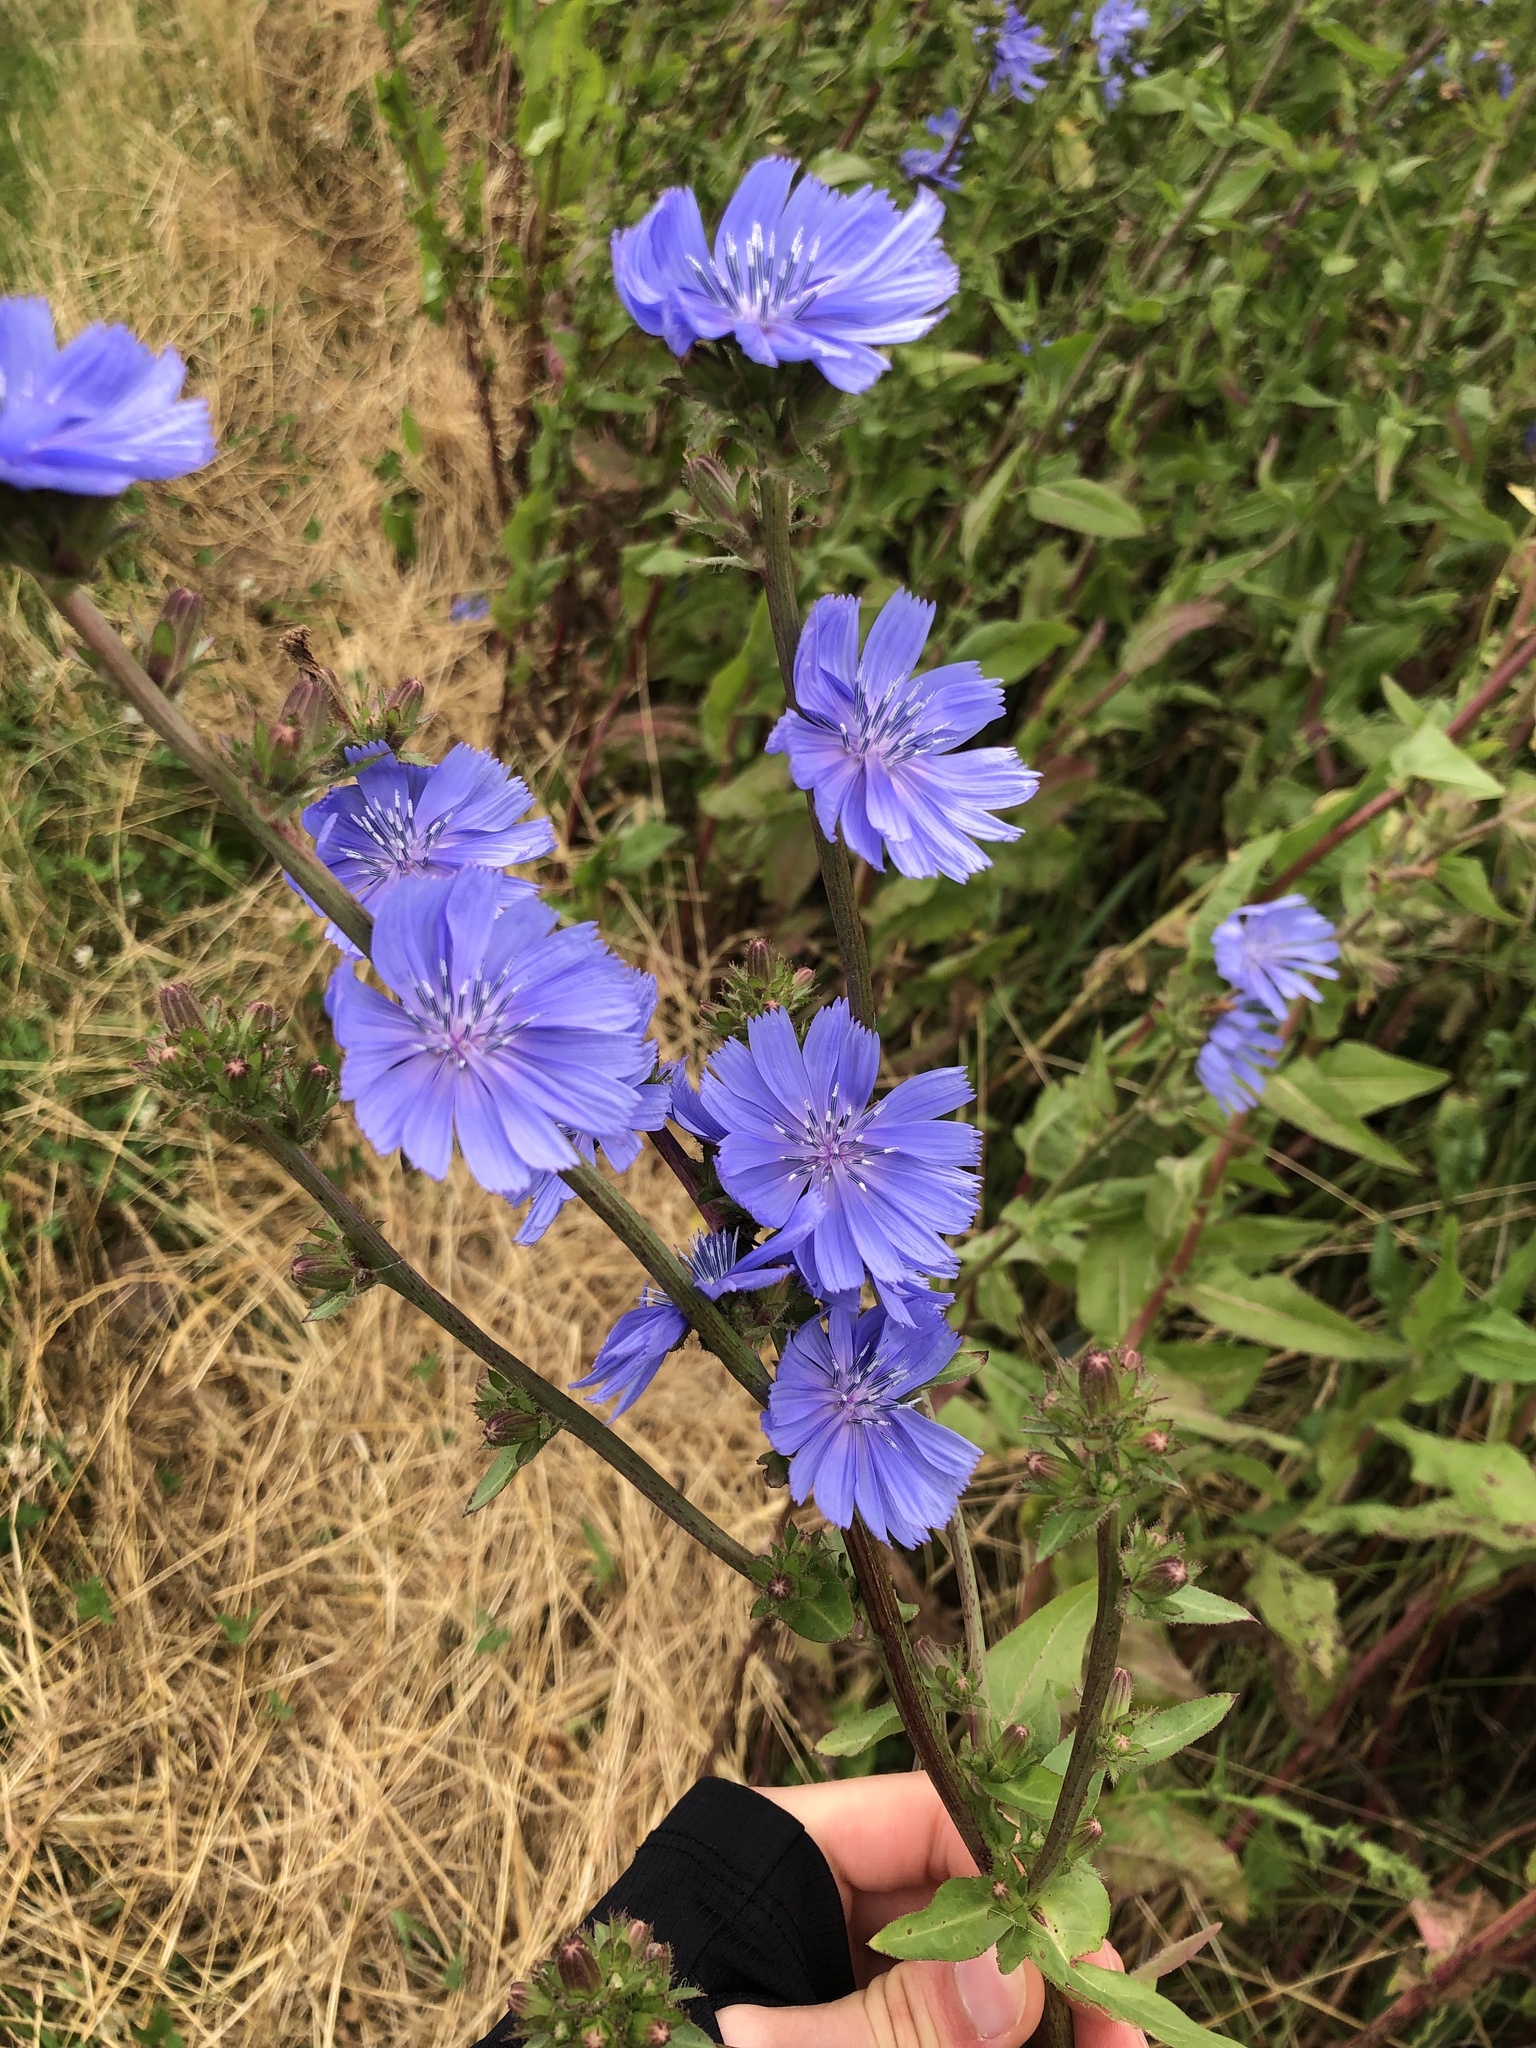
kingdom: Plantae
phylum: Tracheophyta
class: Magnoliopsida
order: Asterales
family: Asteraceae
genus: Cichorium
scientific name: Cichorium intybus
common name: Chicory
